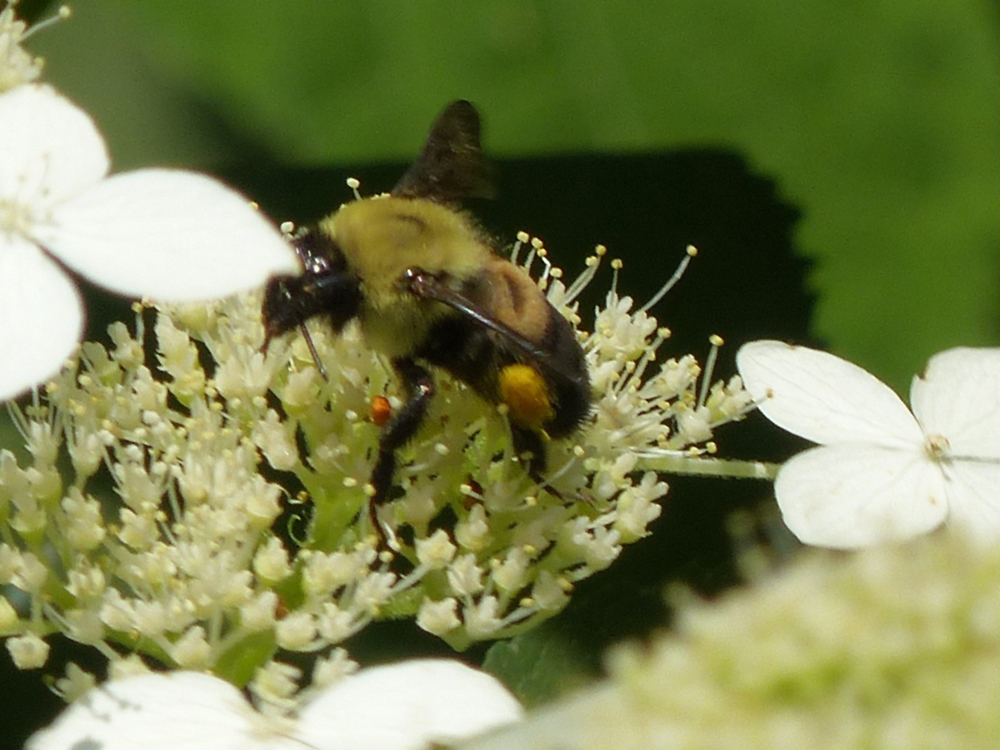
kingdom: Animalia
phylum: Arthropoda
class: Insecta
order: Hymenoptera
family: Apidae
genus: Bombus
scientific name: Bombus griseocollis
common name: Brown-belted bumble bee
